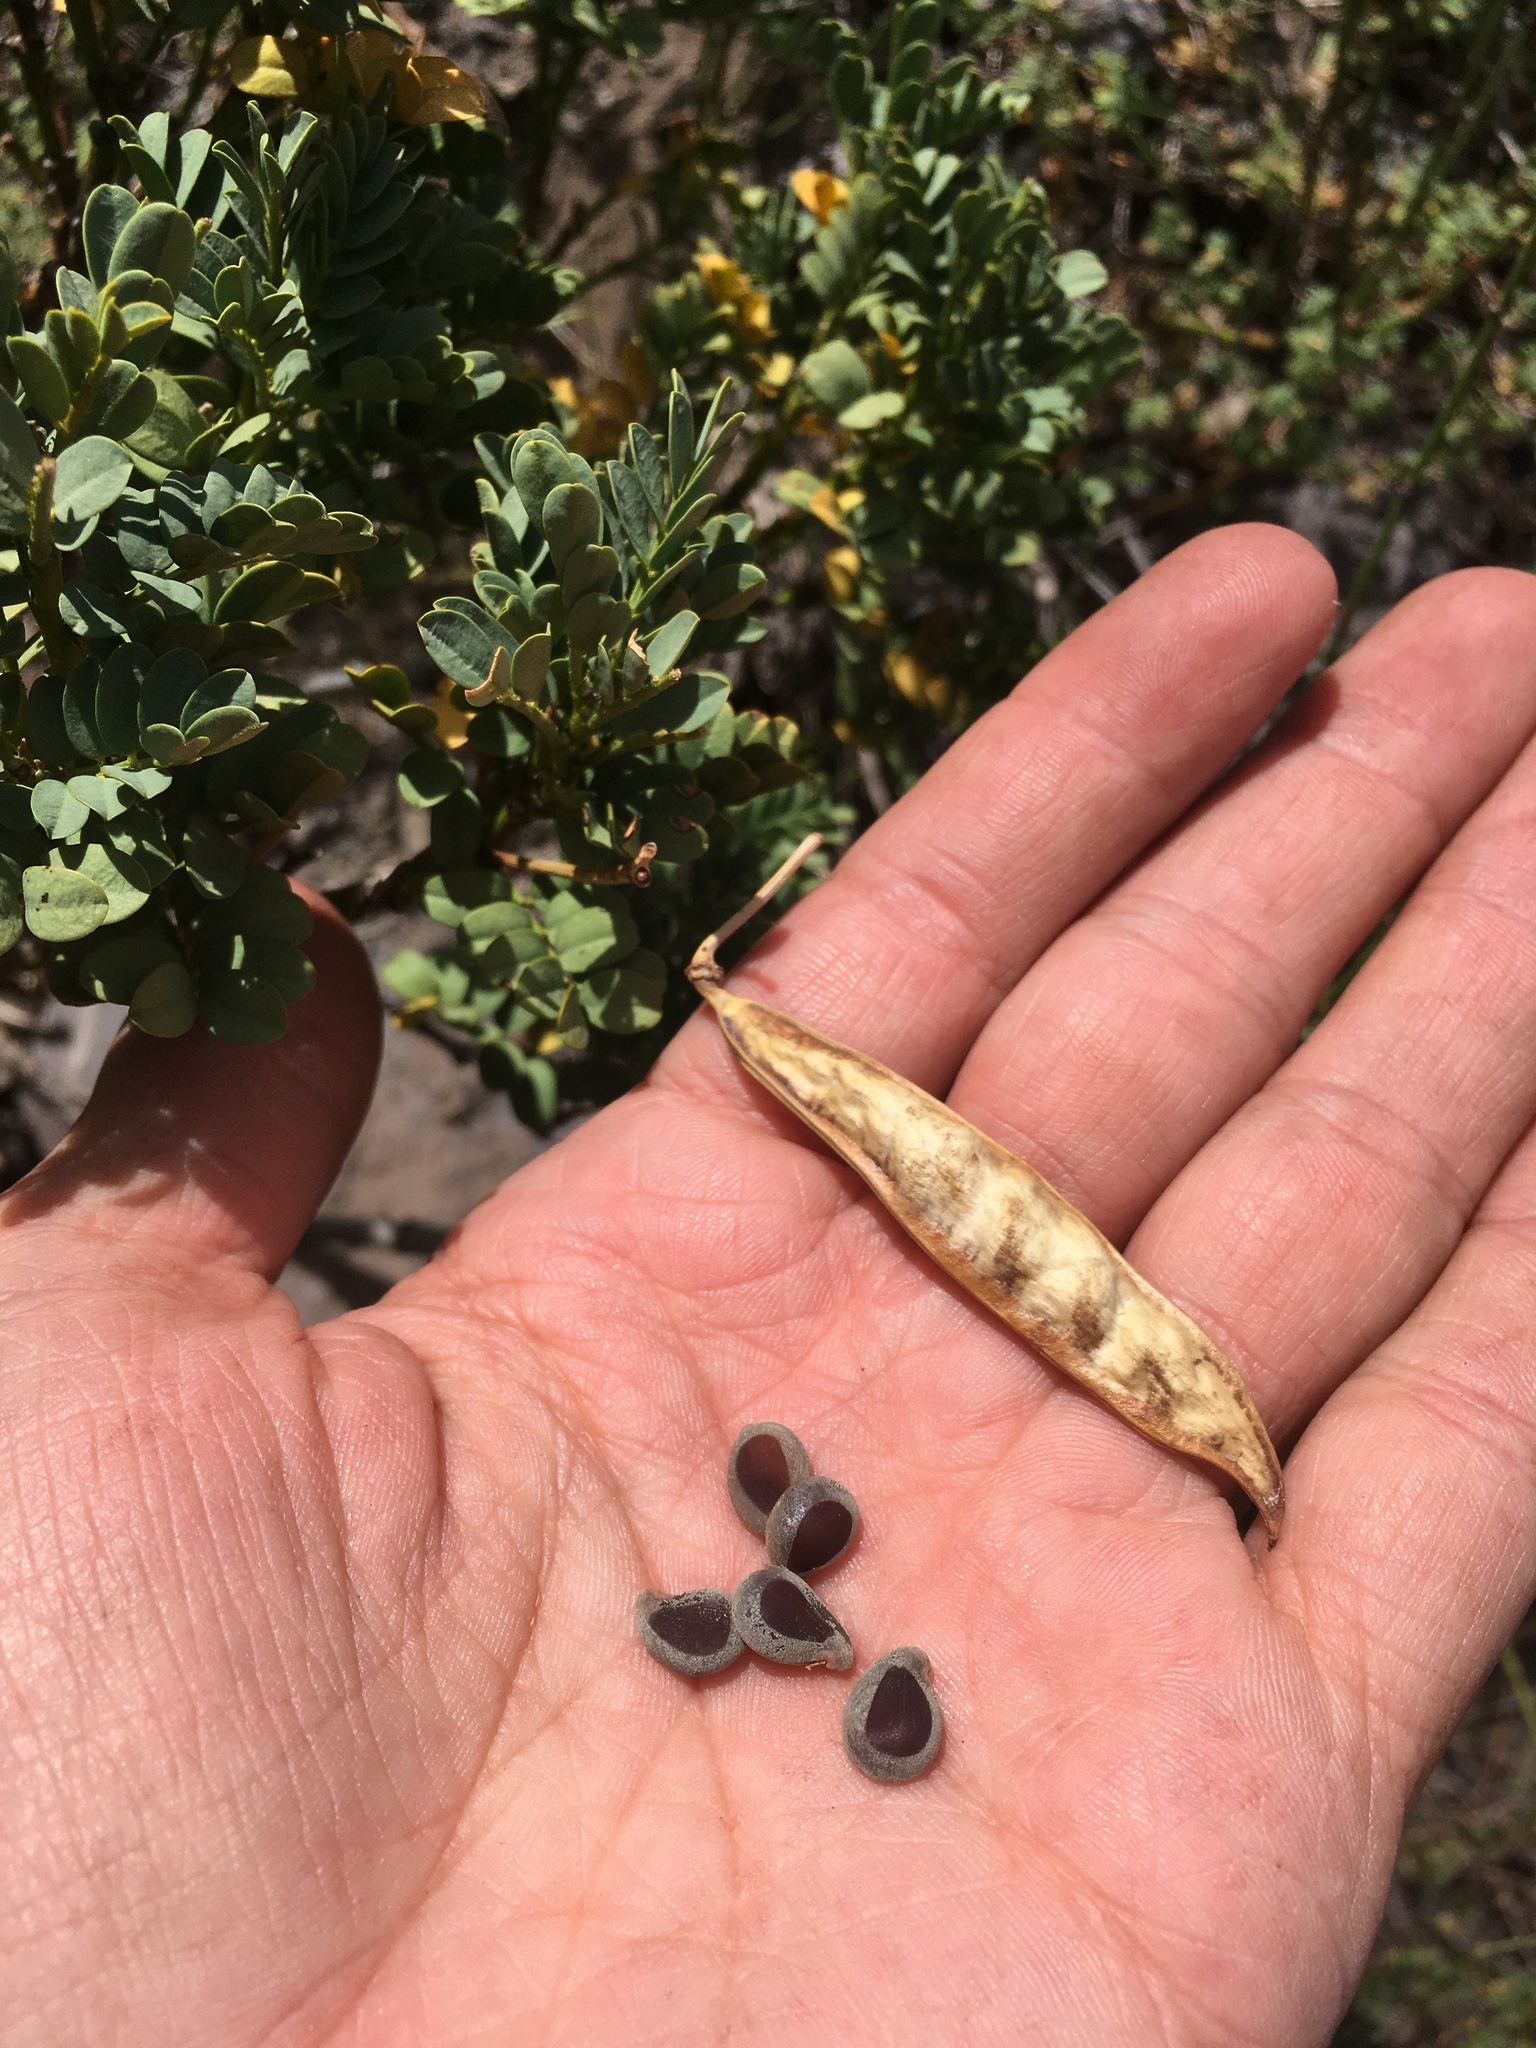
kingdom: Plantae
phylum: Tracheophyta
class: Magnoliopsida
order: Fabales
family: Fabaceae
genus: Senna
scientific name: Senna arnottiana
